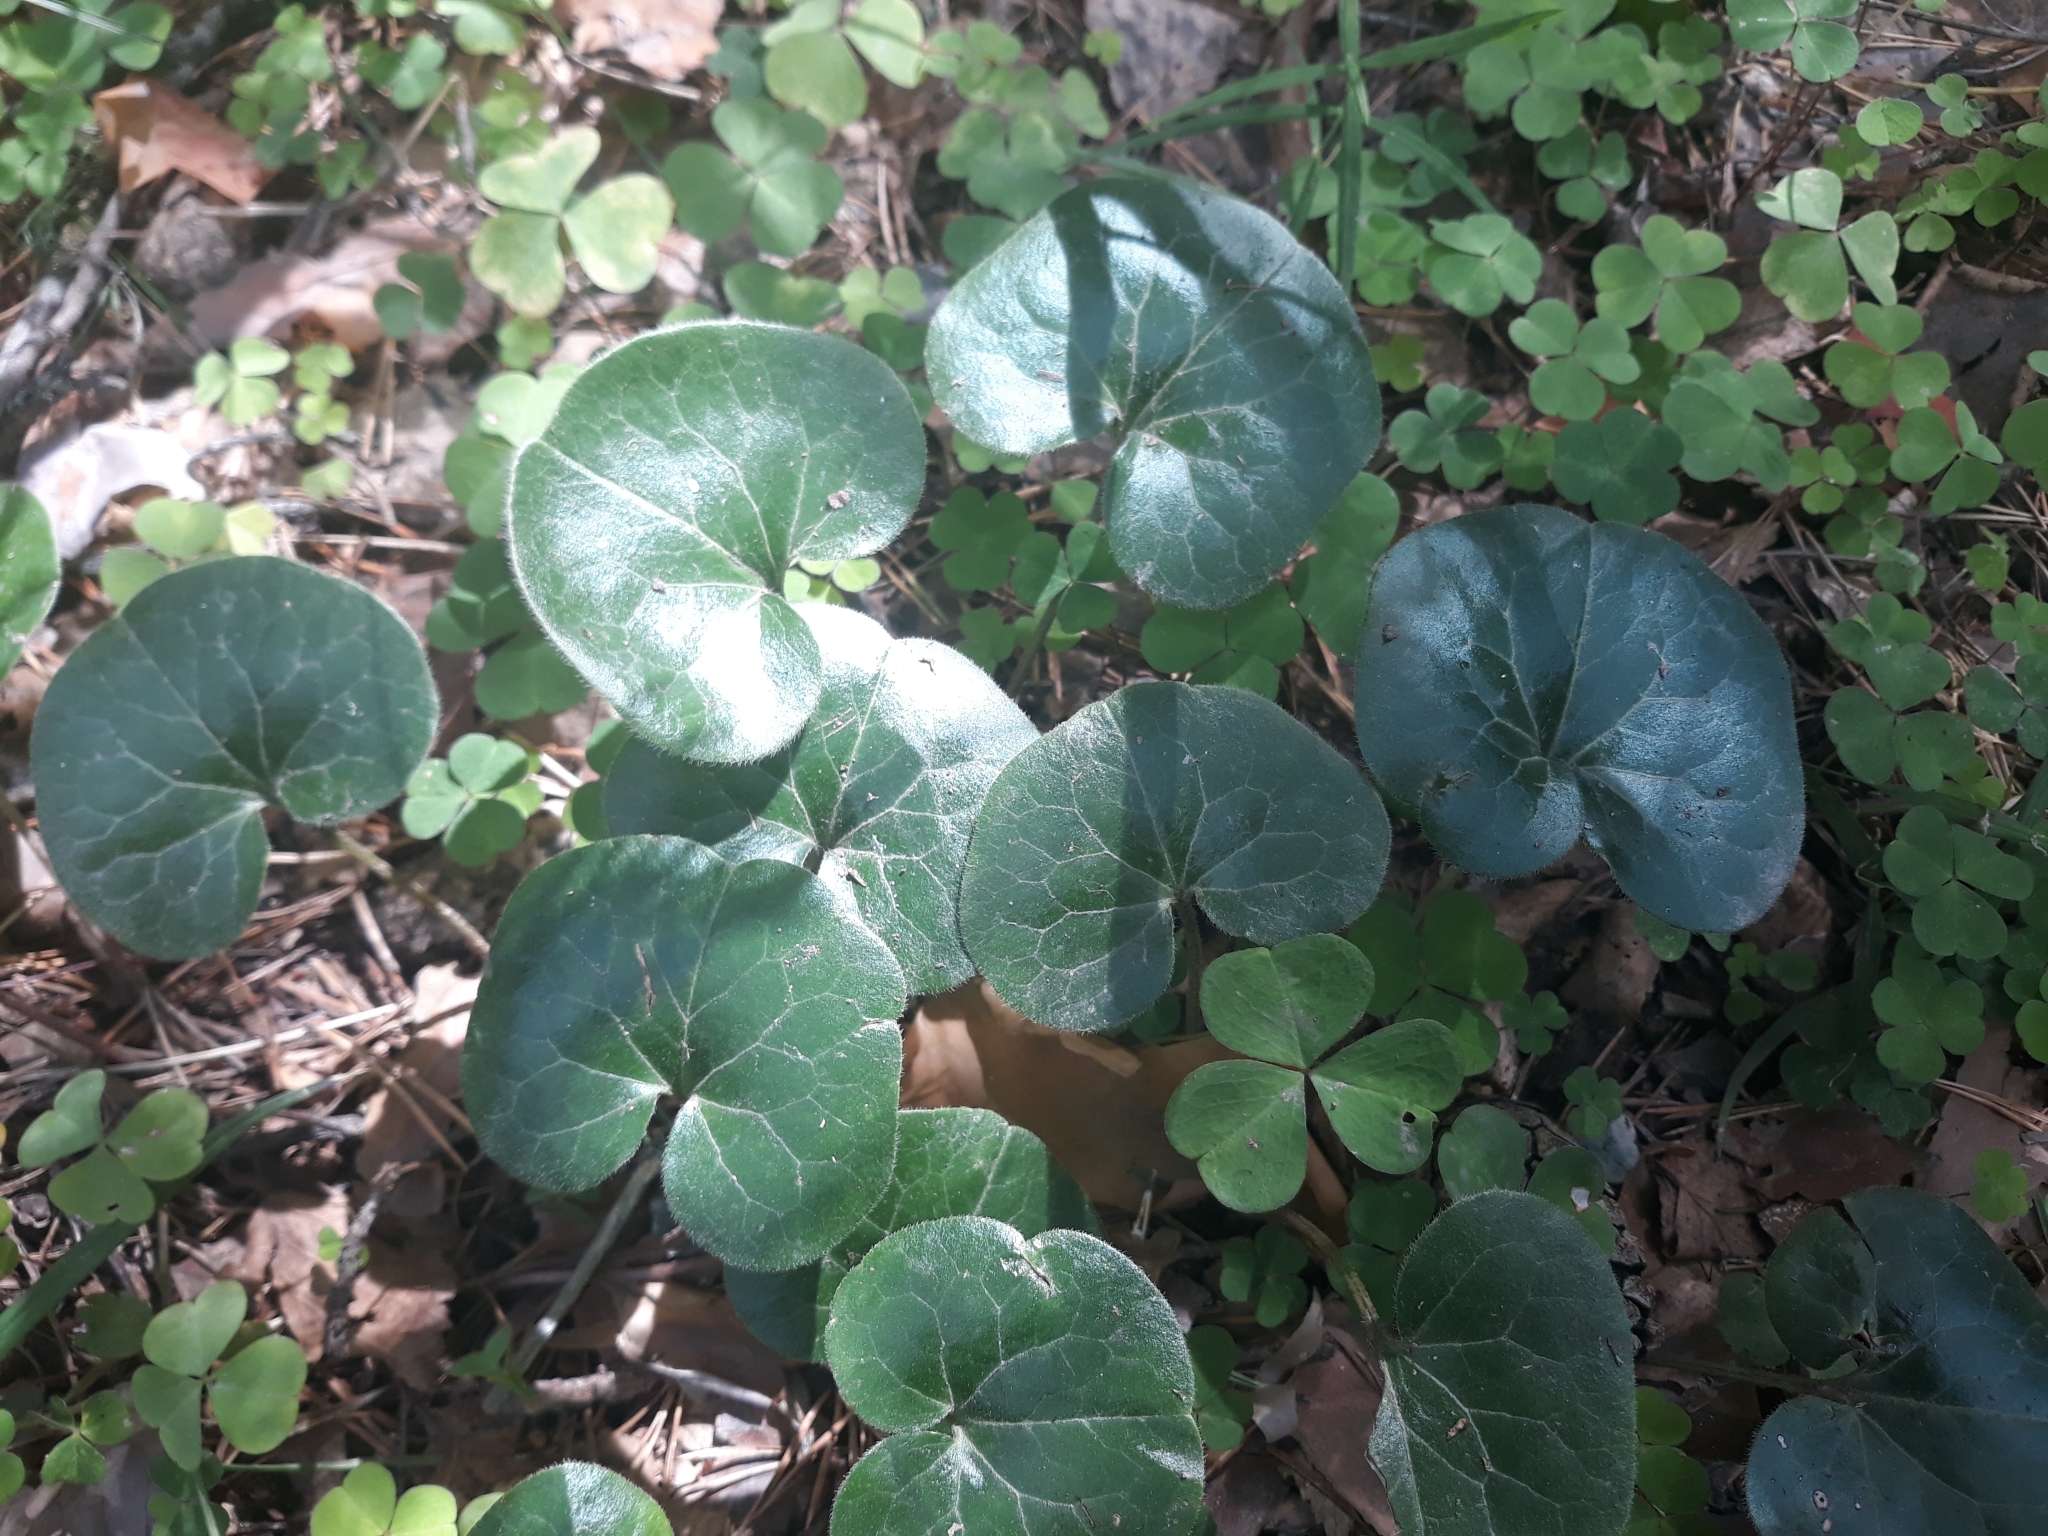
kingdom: Plantae
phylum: Tracheophyta
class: Magnoliopsida
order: Piperales
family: Aristolochiaceae
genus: Asarum
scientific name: Asarum europaeum
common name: Asarabacca
